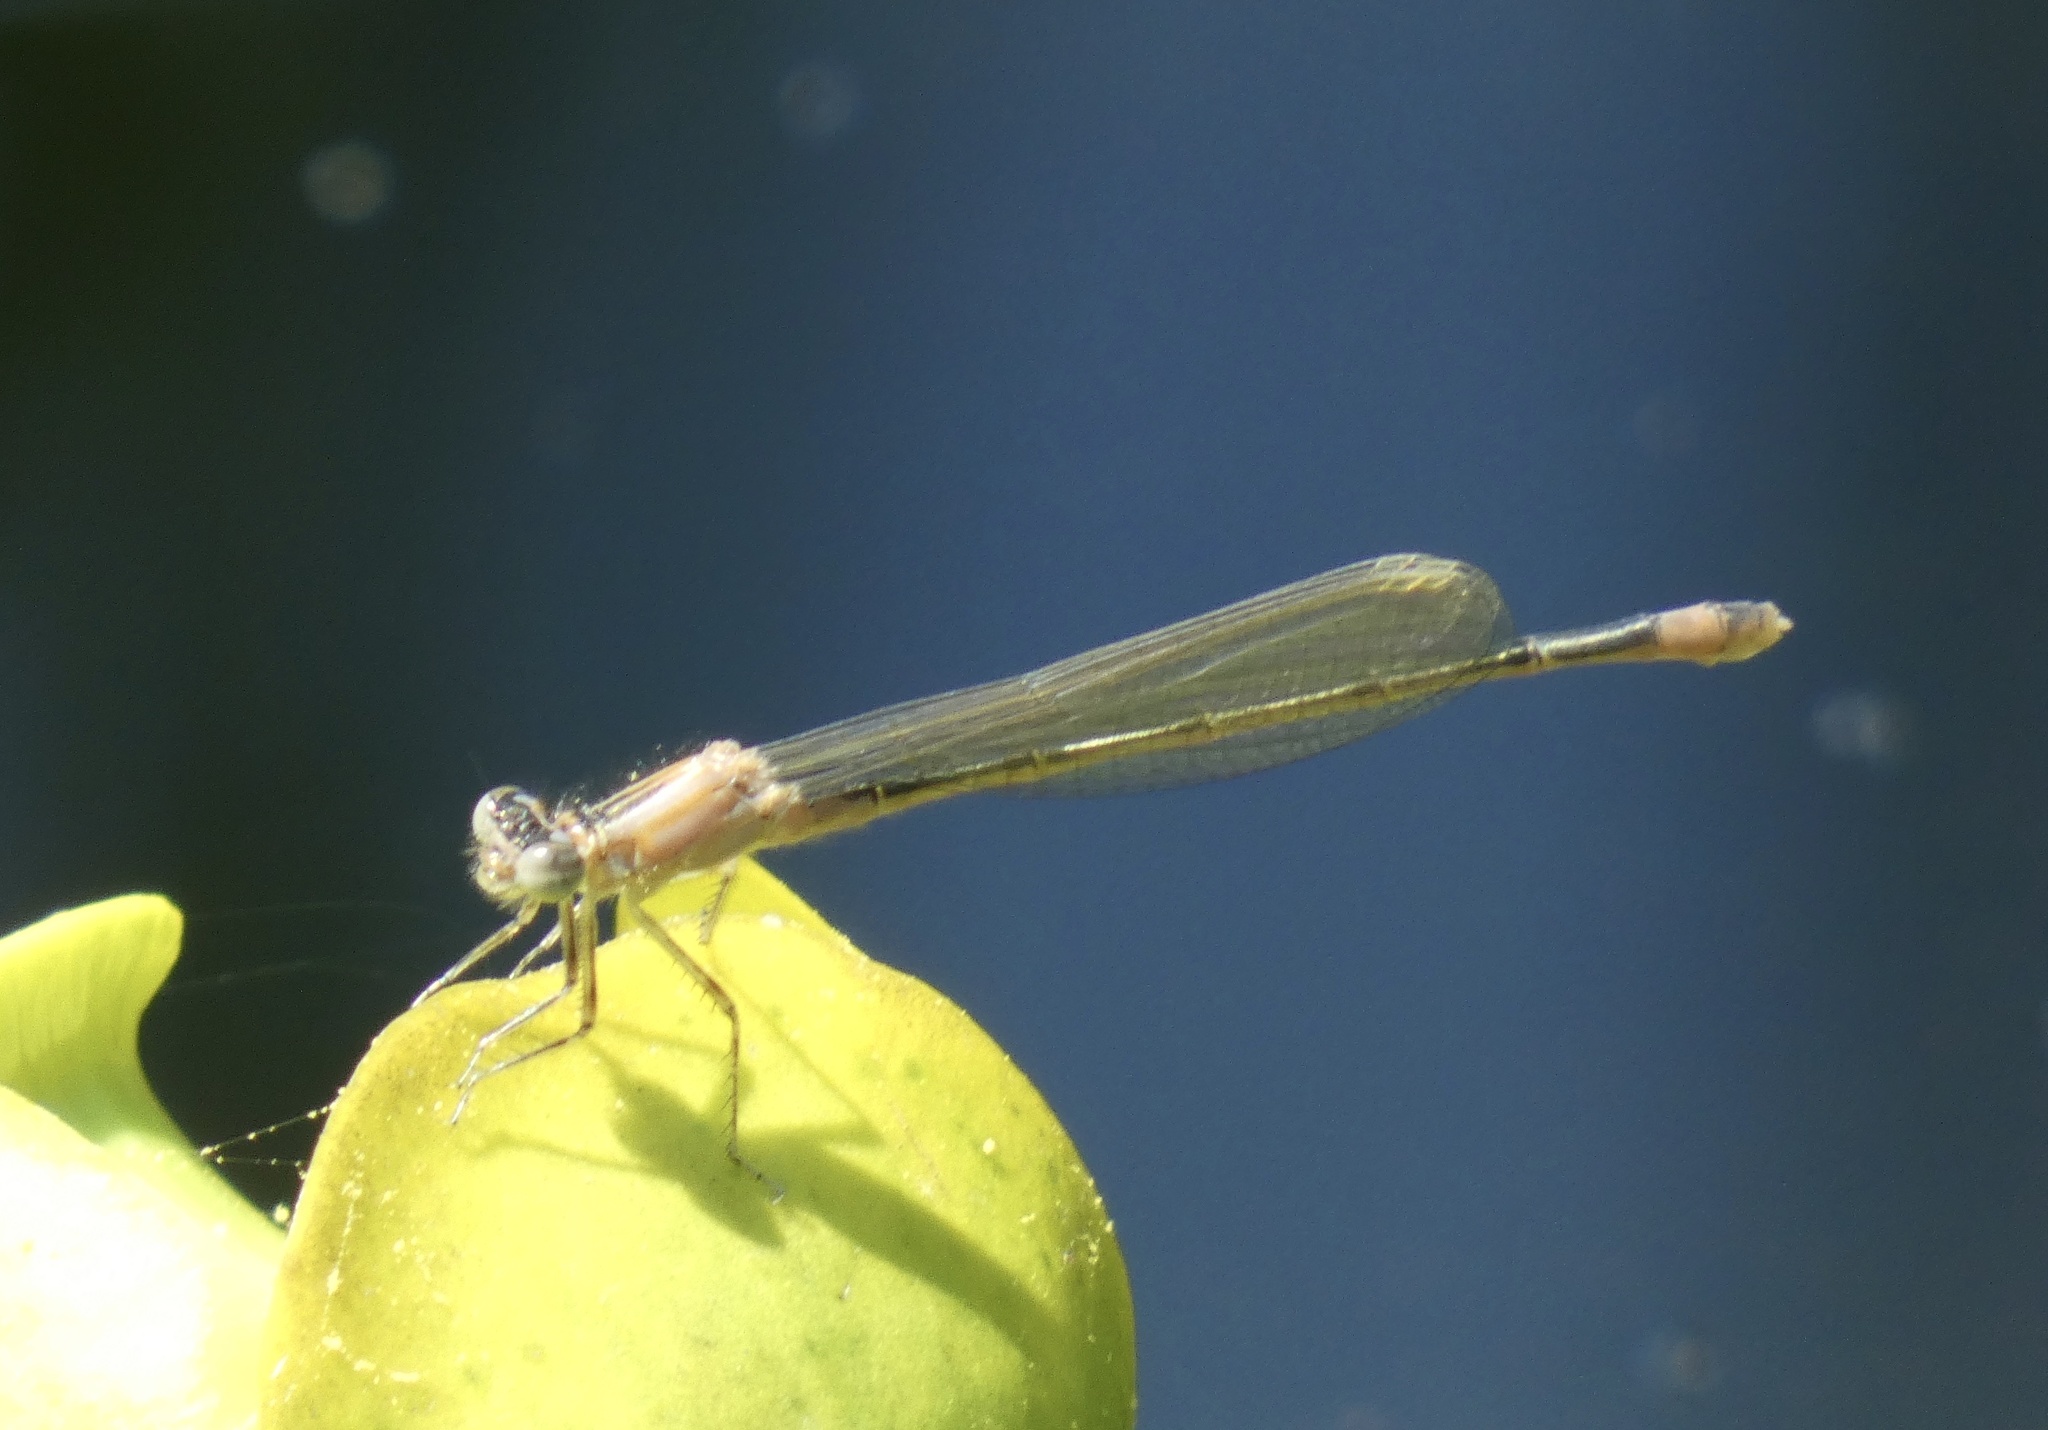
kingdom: Animalia
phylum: Arthropoda
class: Insecta
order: Odonata
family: Coenagrionidae
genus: Ischnura
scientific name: Ischnura elegans
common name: Blue-tailed damselfly
